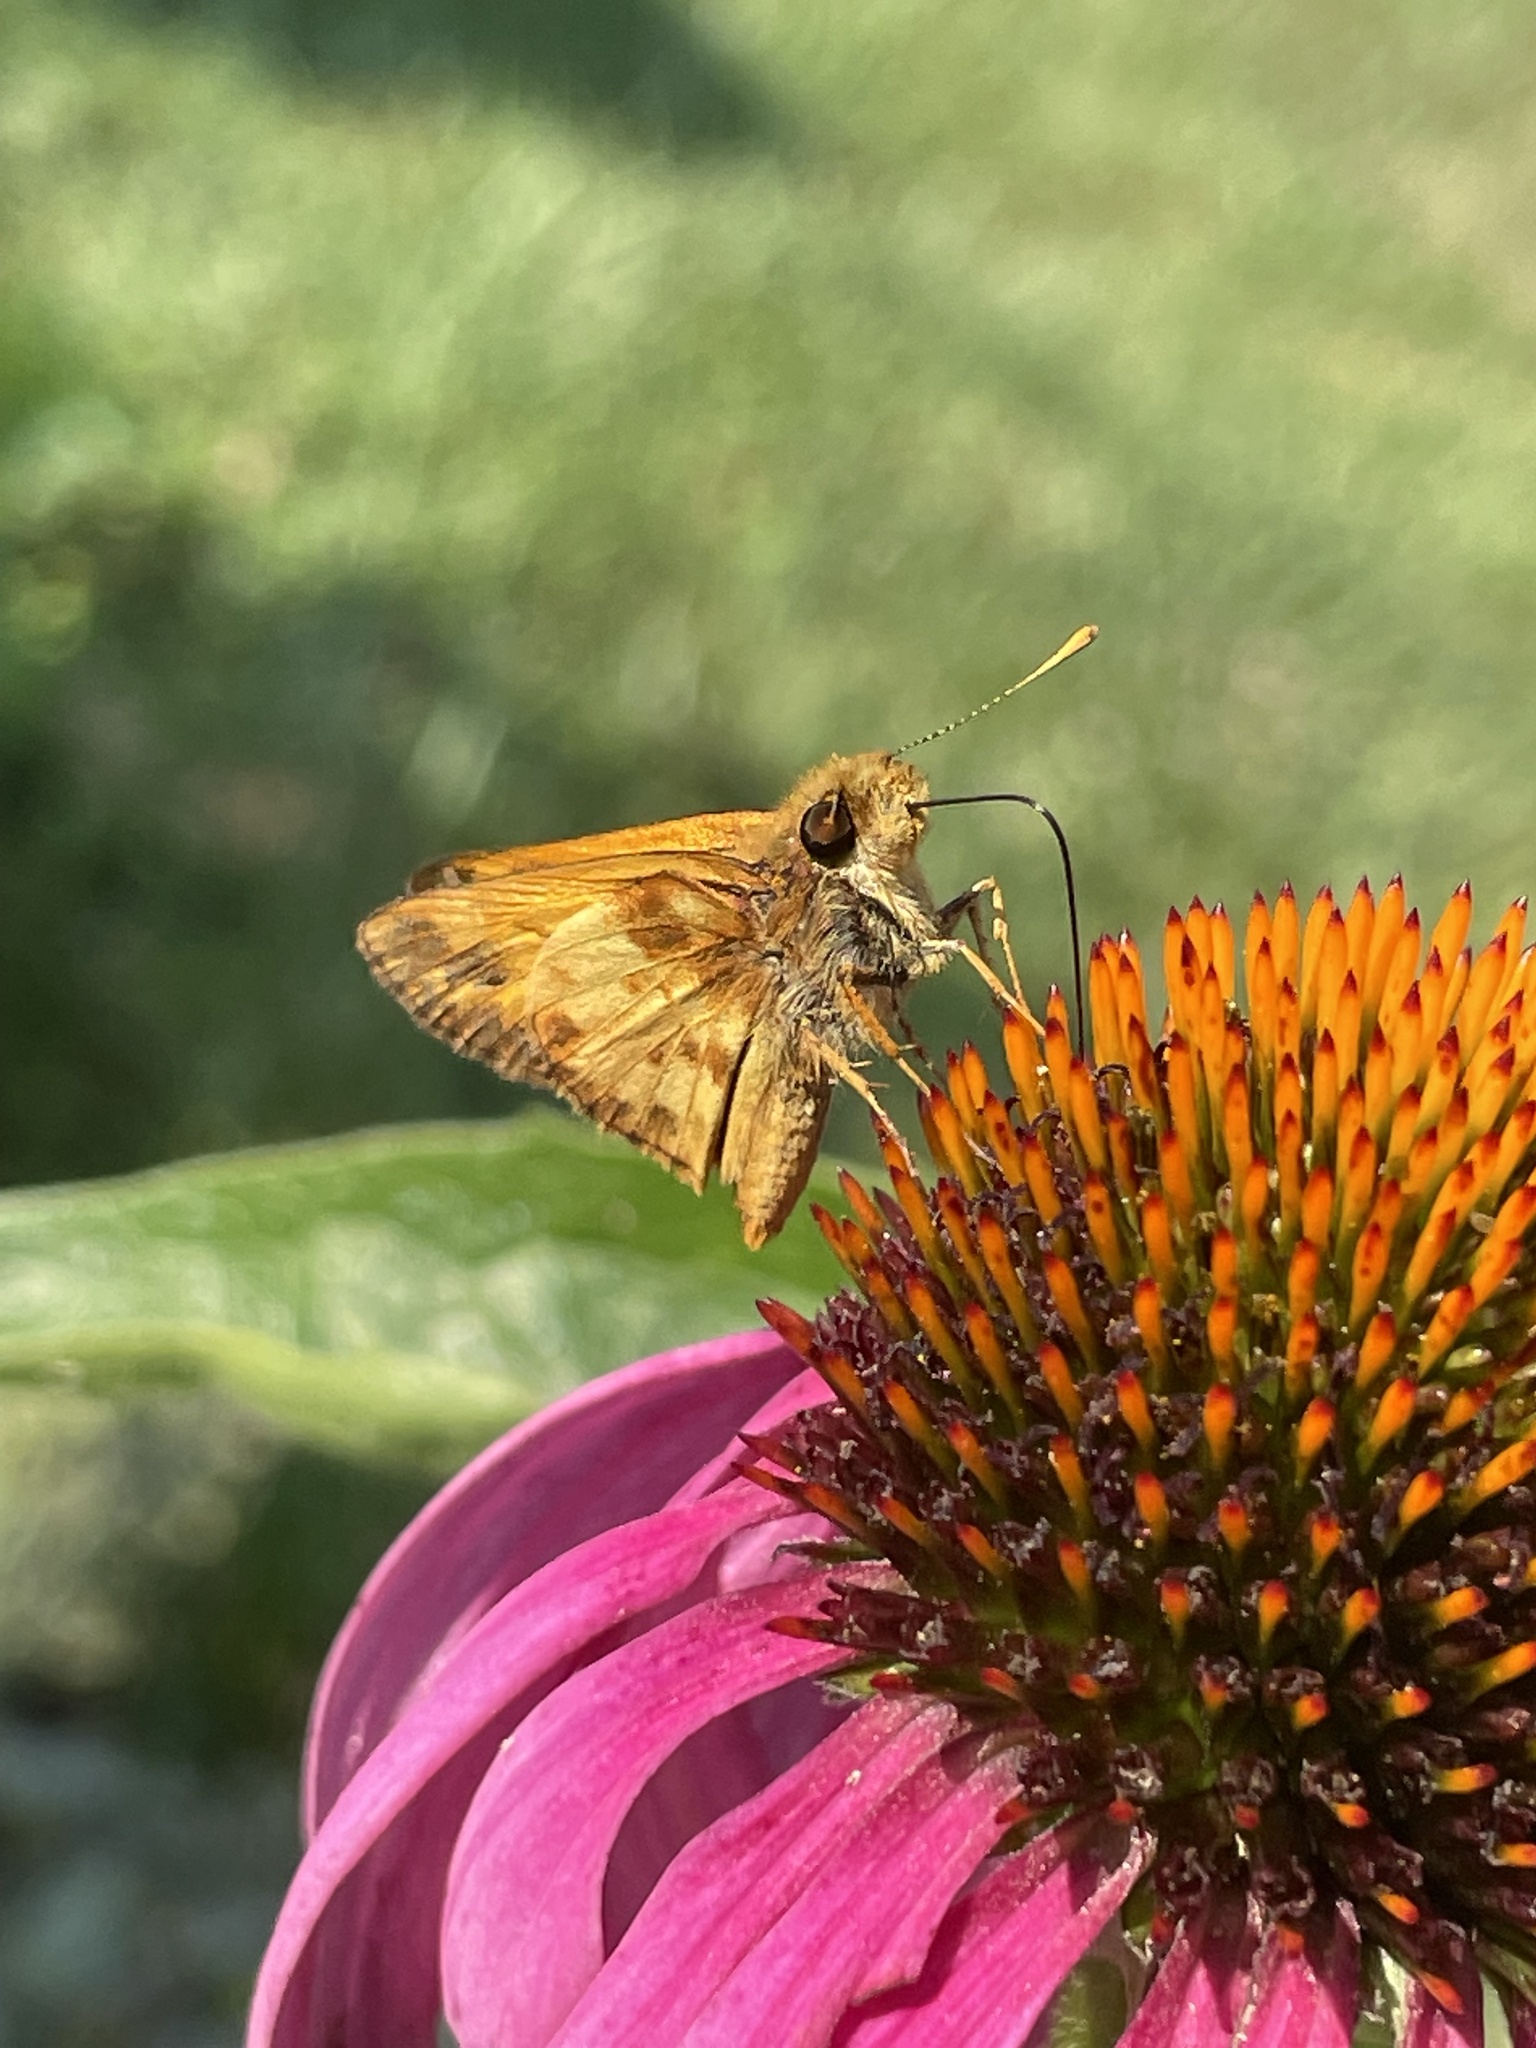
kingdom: Animalia
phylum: Arthropoda
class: Insecta
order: Lepidoptera
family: Hesperiidae
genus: Lon
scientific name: Lon zabulon
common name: Zabulon skipper
